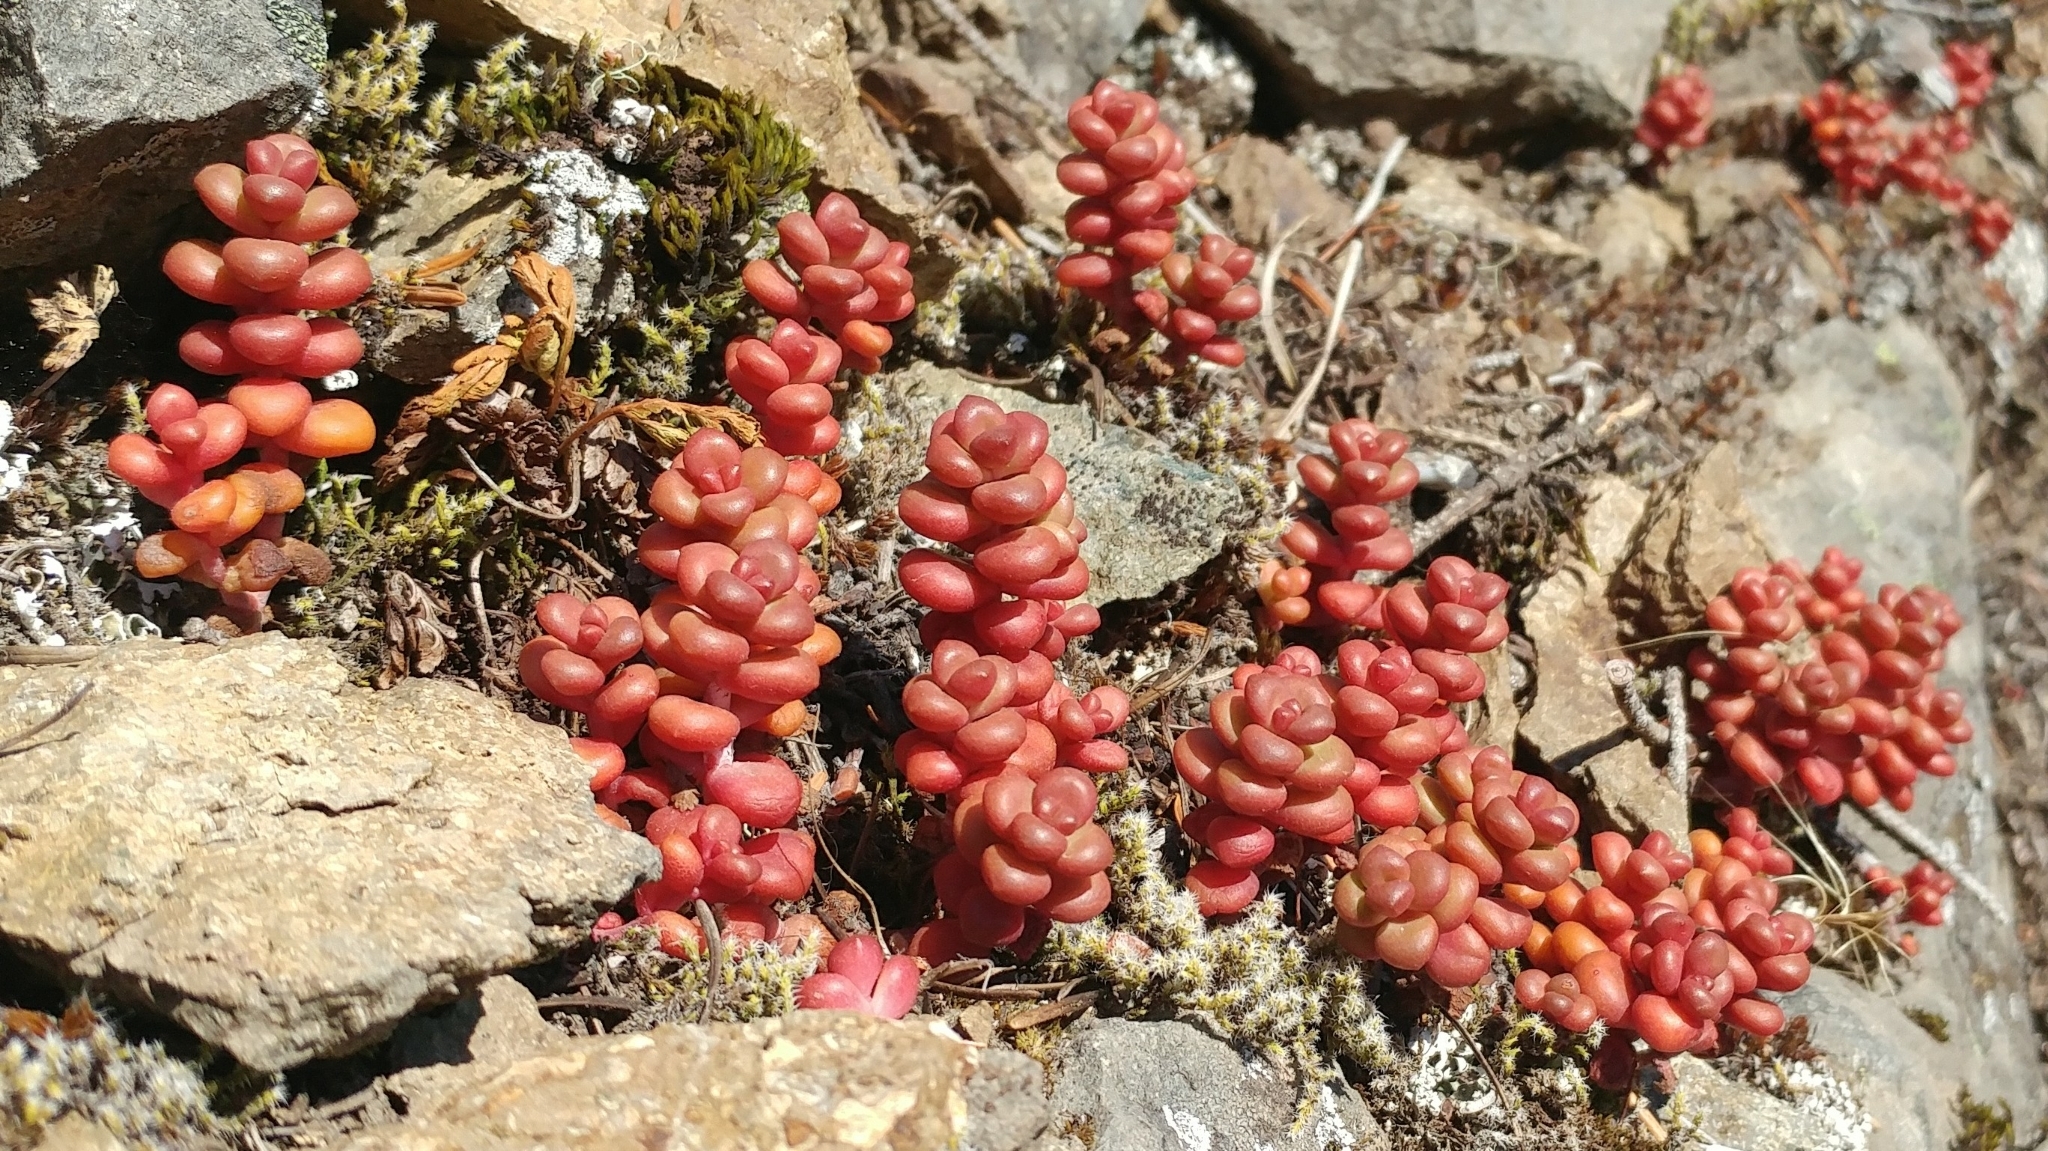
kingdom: Plantae
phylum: Tracheophyta
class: Magnoliopsida
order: Saxifragales
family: Crassulaceae
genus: Sedum
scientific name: Sedum divergens
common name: Cascade stonecrop
